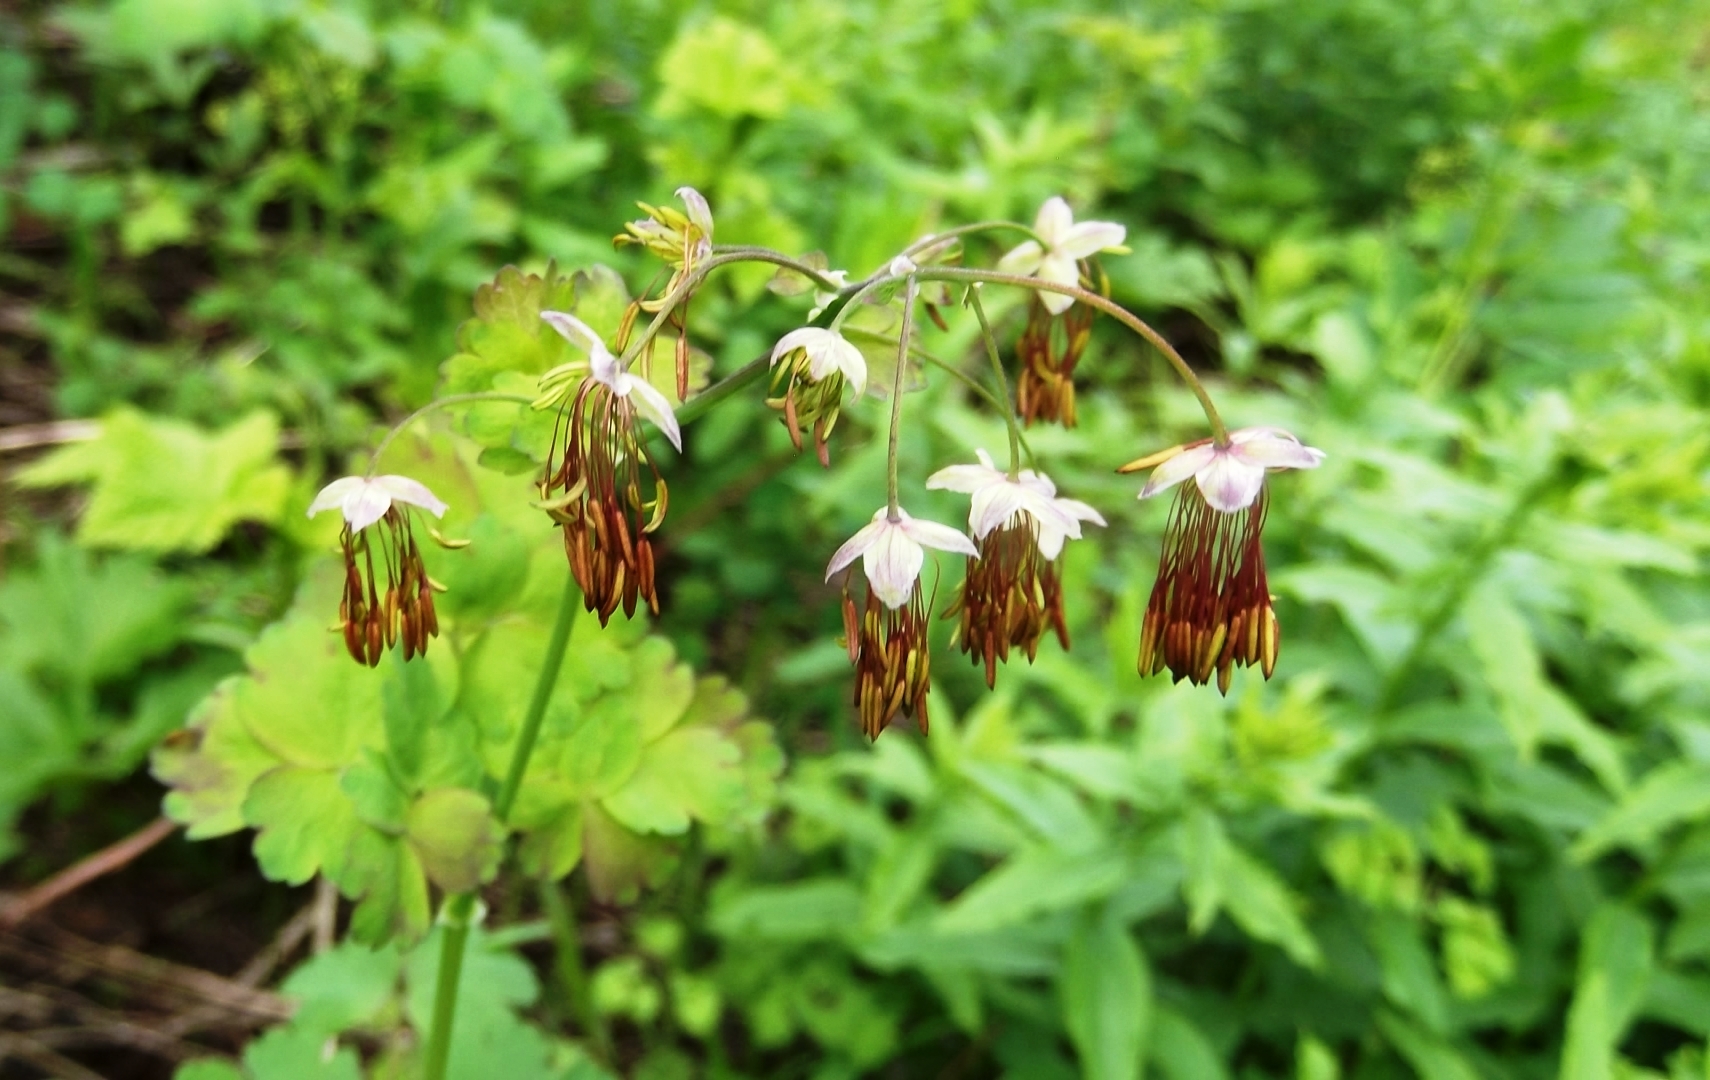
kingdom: Plantae
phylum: Tracheophyta
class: Magnoliopsida
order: Ranunculales
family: Ranunculaceae
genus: Thalictrum
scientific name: Thalictrum occidentale
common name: Western meadow-rue
